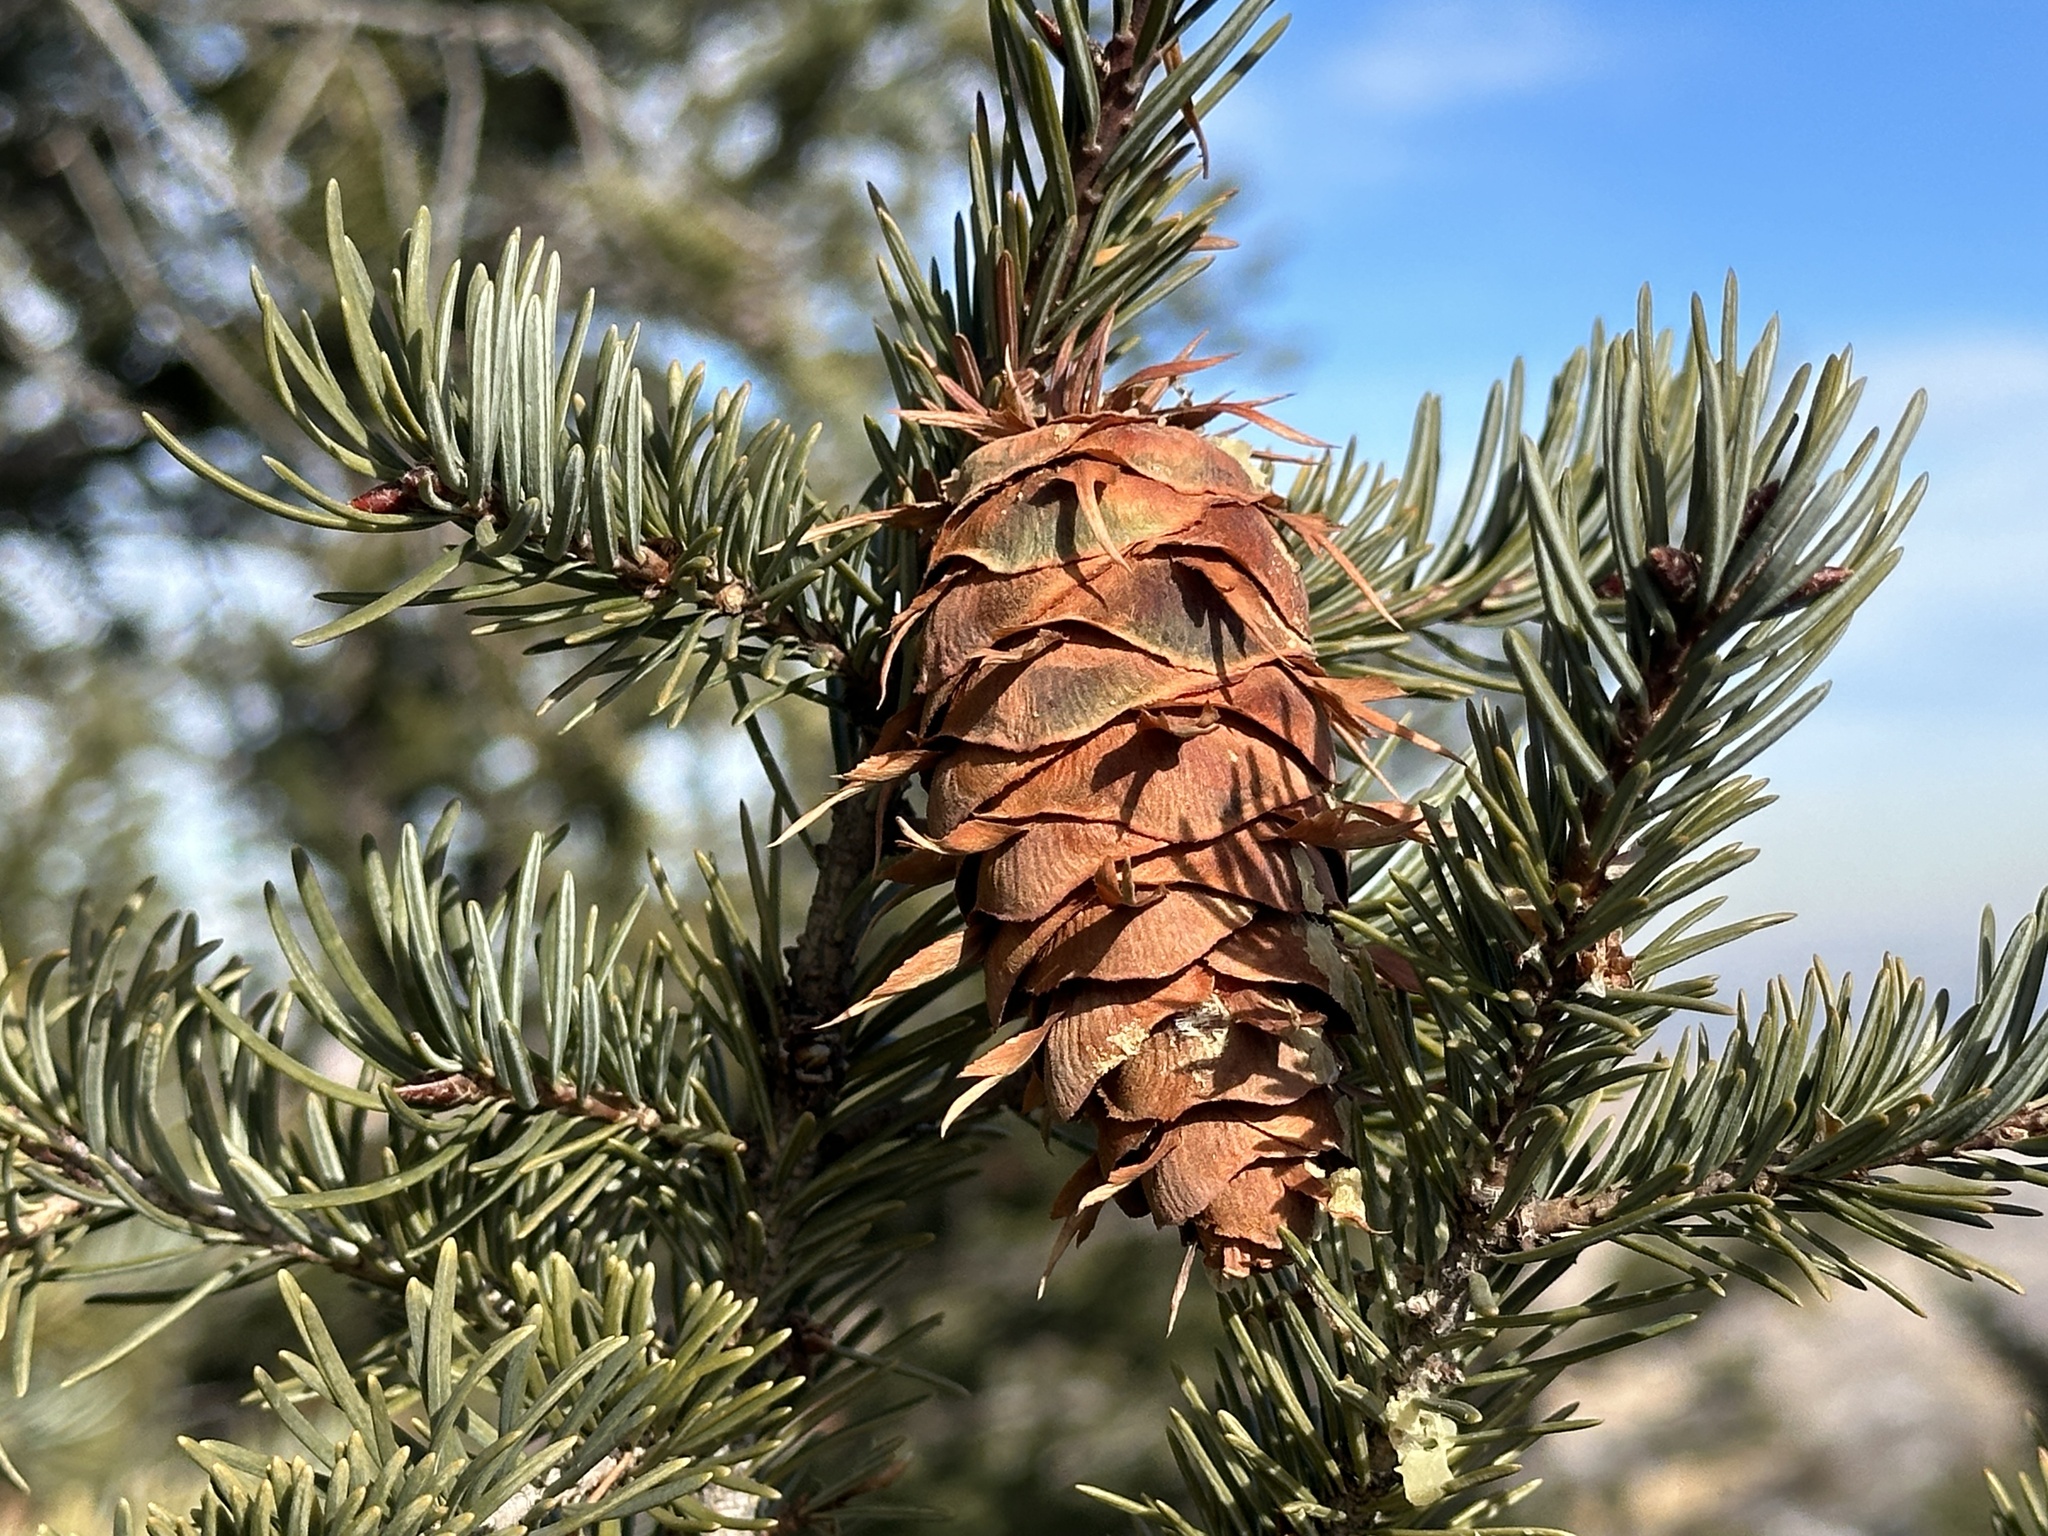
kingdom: Plantae
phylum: Tracheophyta
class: Pinopsida
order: Pinales
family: Pinaceae
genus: Pseudotsuga
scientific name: Pseudotsuga menziesii
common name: Douglas fir
